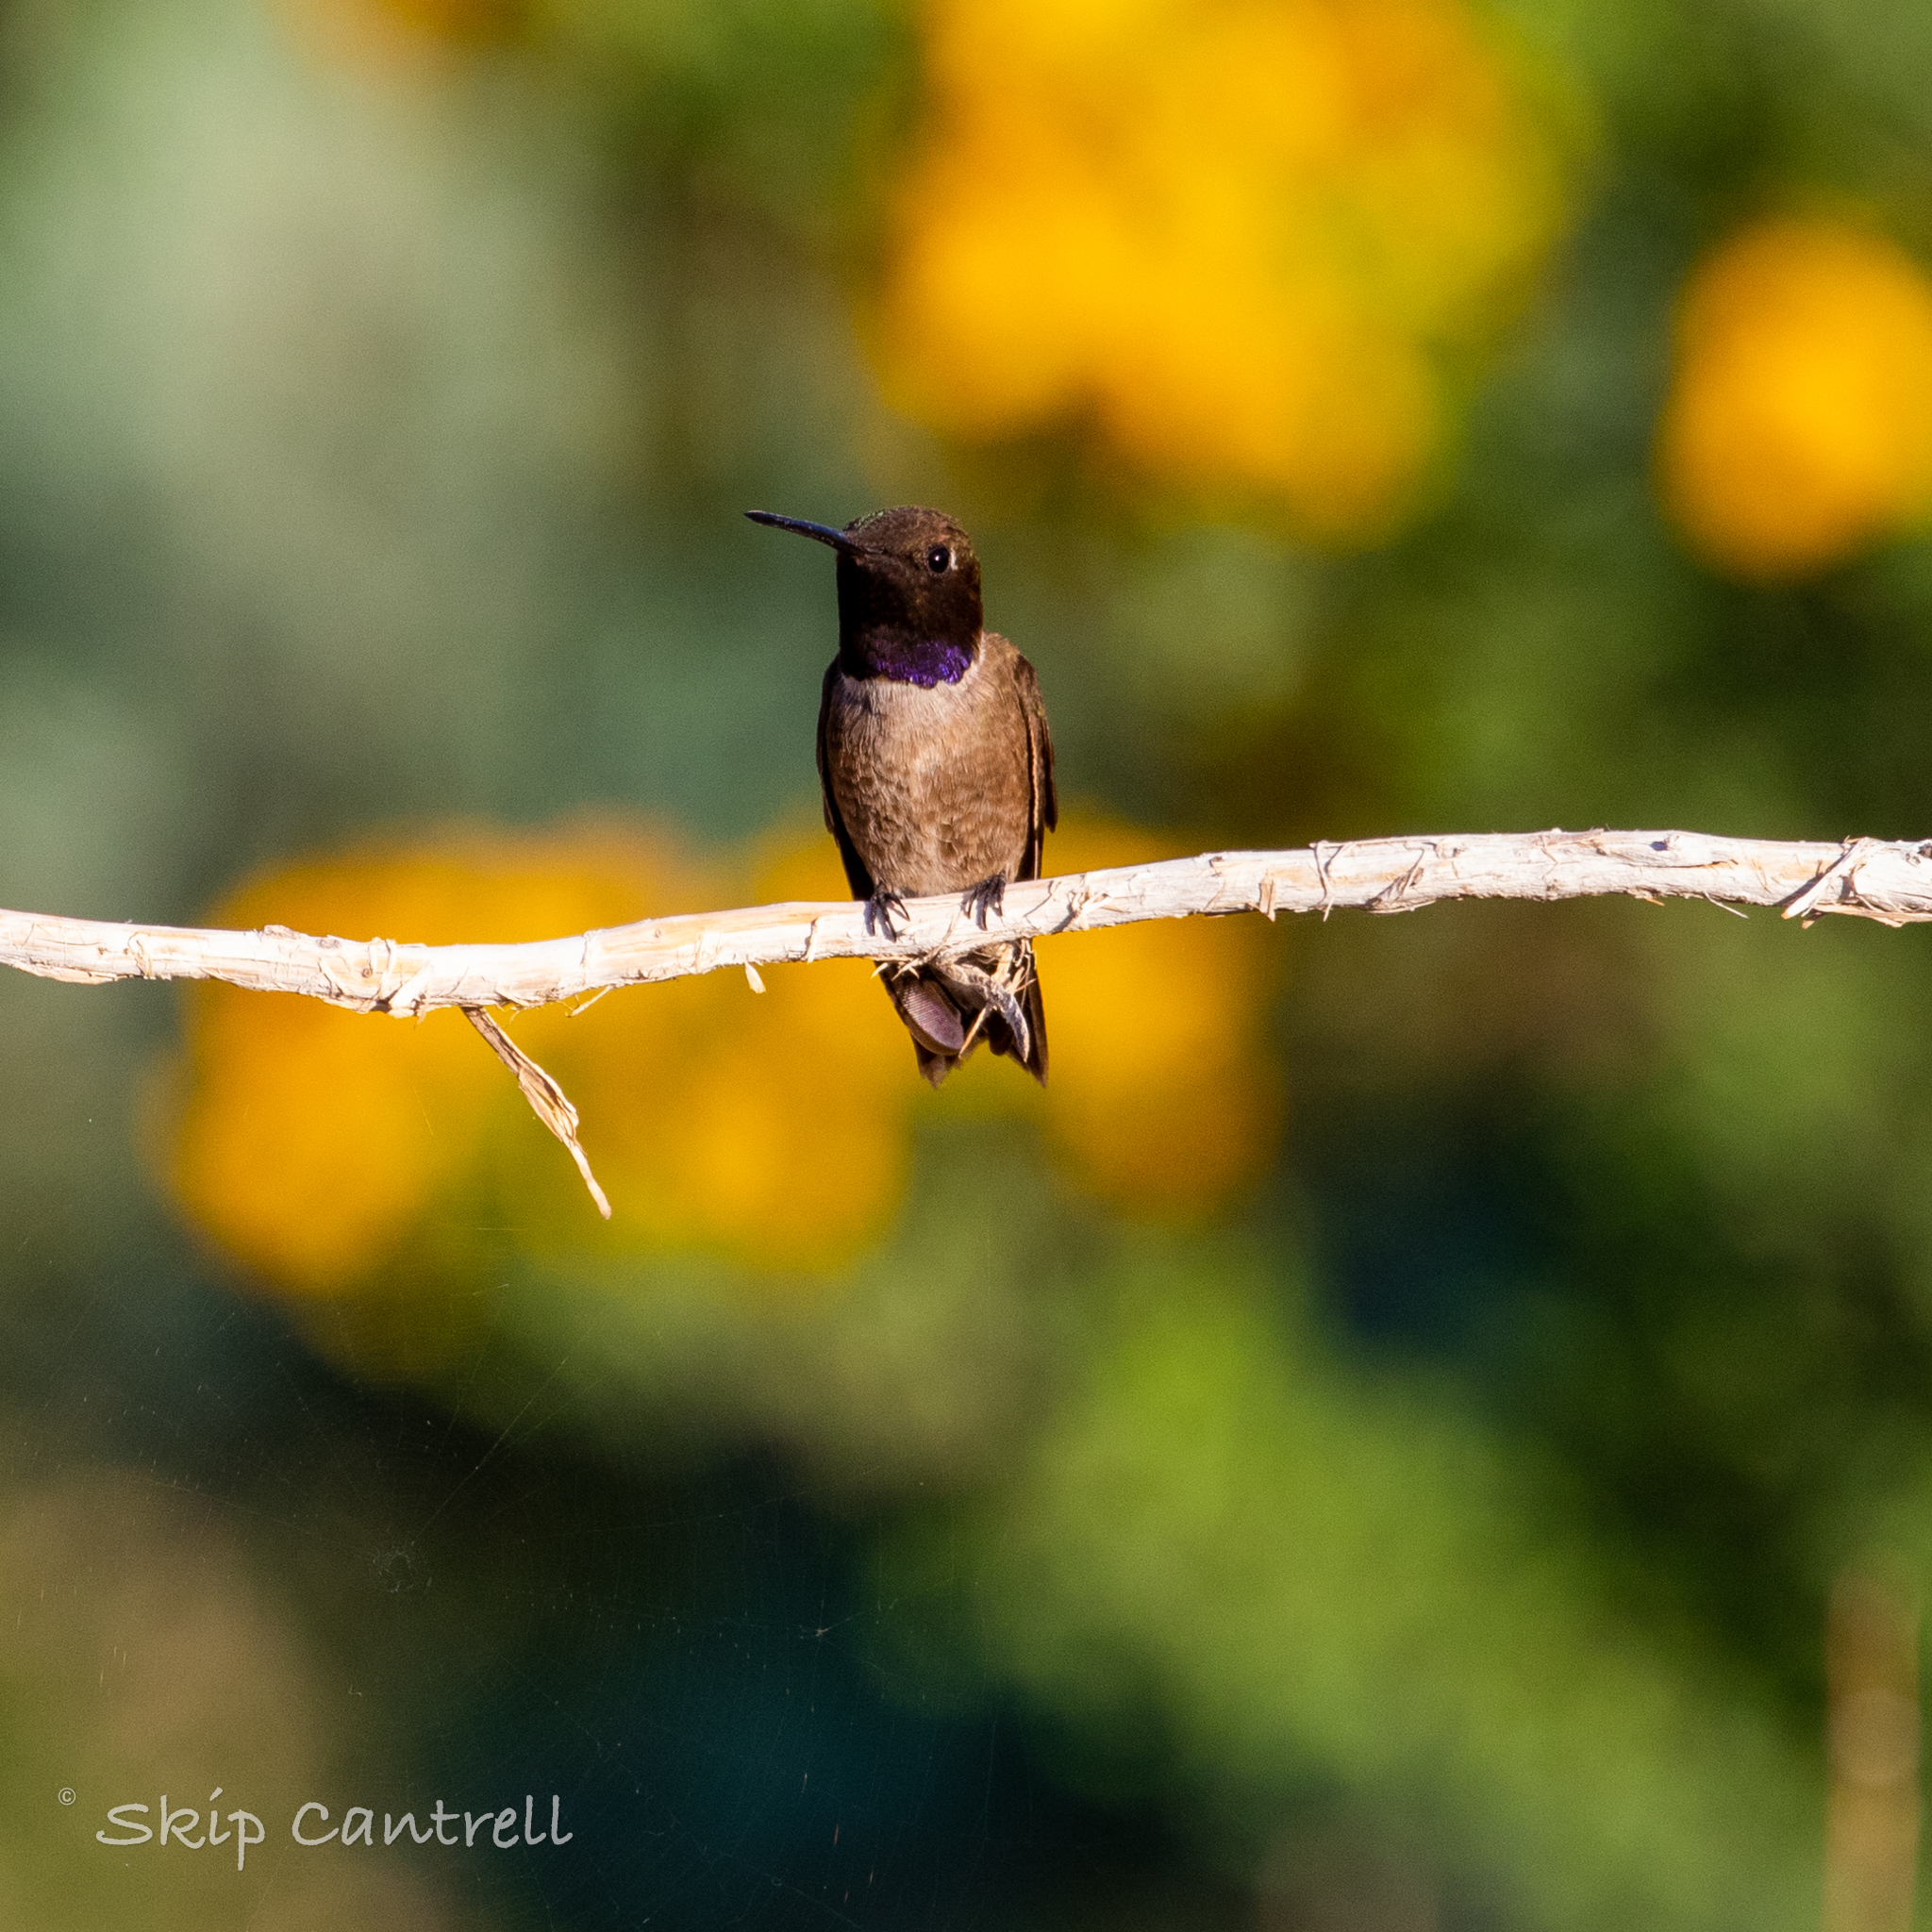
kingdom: Animalia
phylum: Chordata
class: Aves
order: Apodiformes
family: Trochilidae
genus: Archilochus
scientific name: Archilochus alexandri
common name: Black-chinned hummingbird
